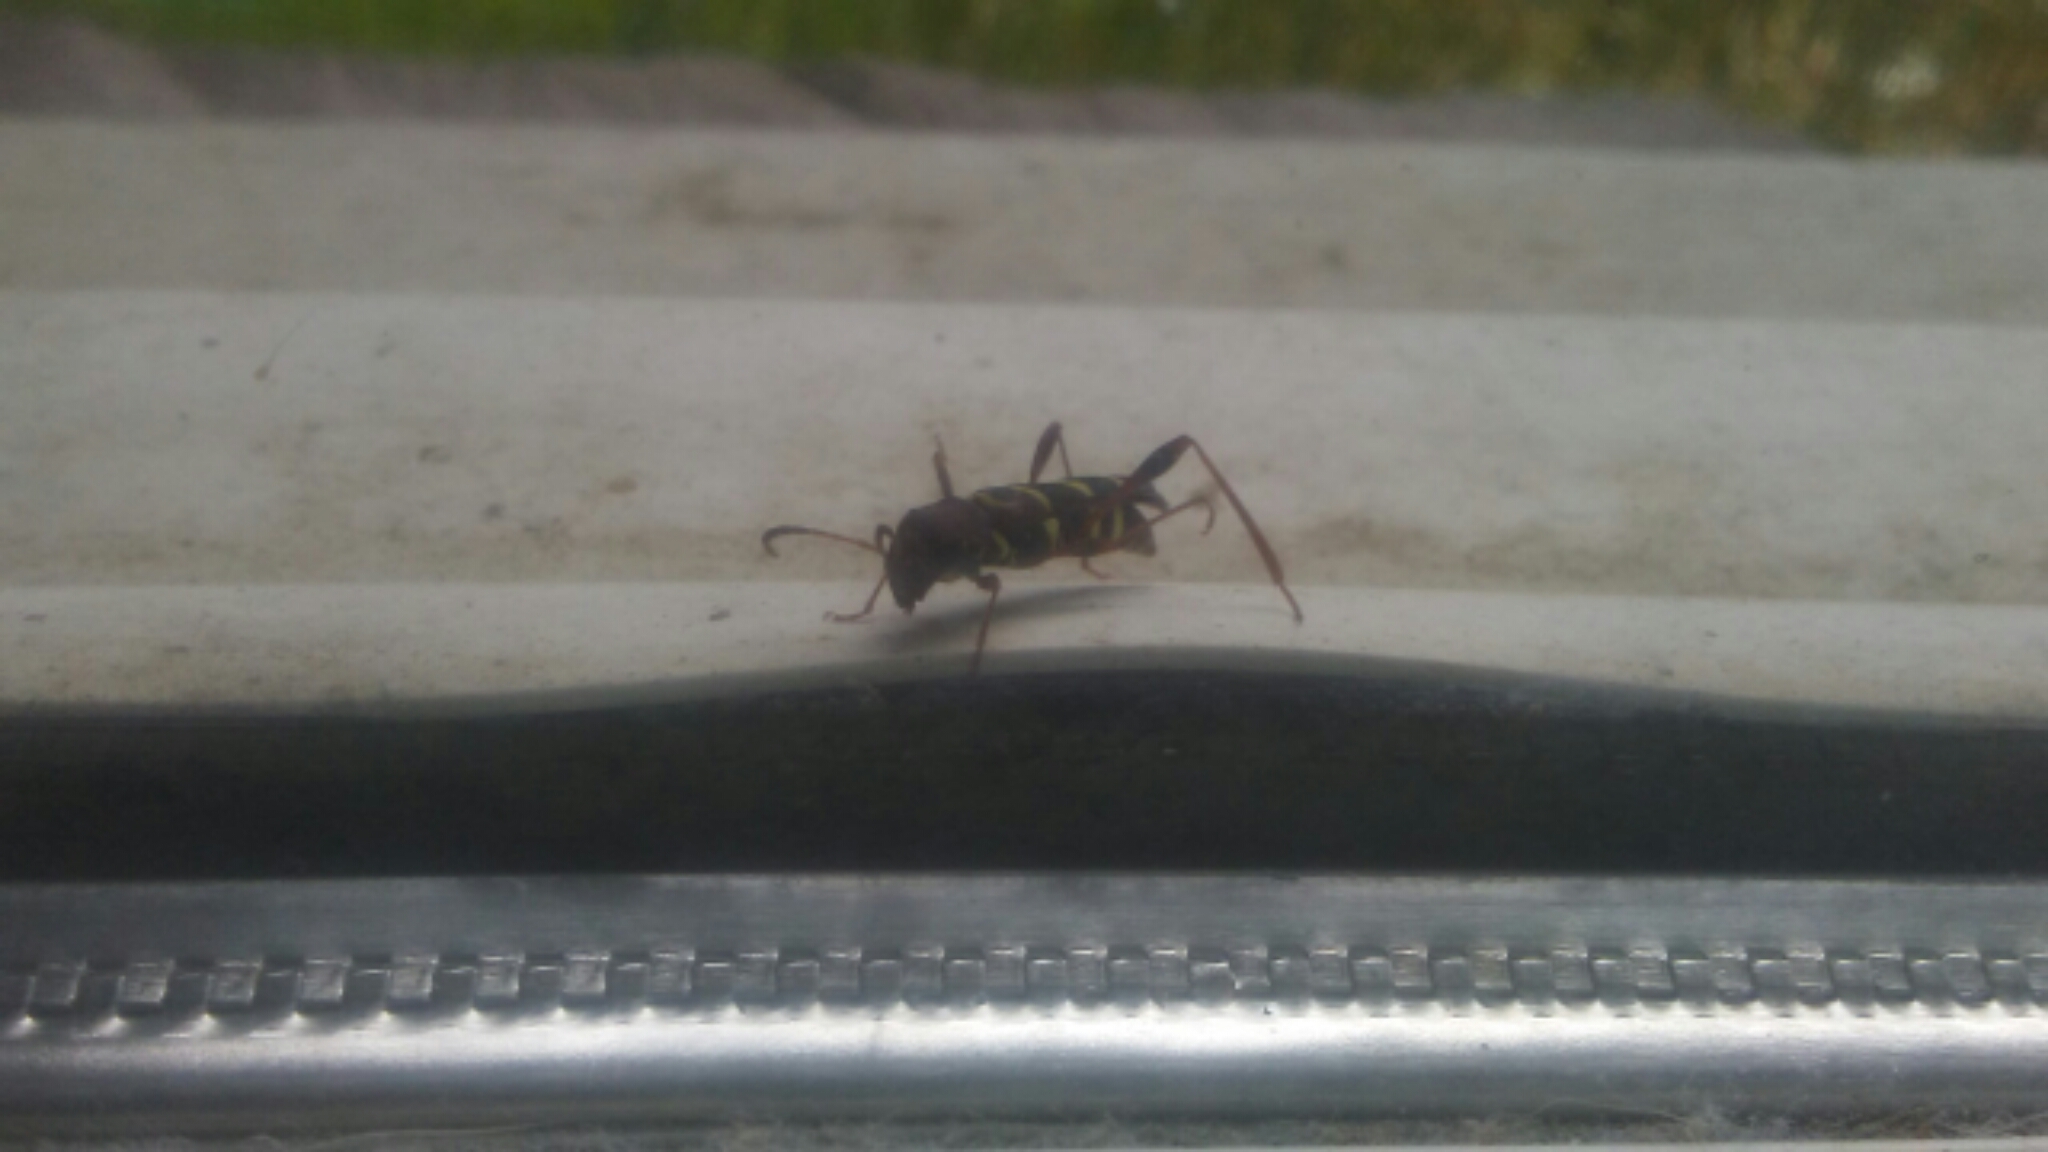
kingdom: Animalia
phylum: Arthropoda
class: Insecta
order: Coleoptera
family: Cerambycidae
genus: Neoclytus
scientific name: Neoclytus acuminatus
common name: Read-headed ash borer
